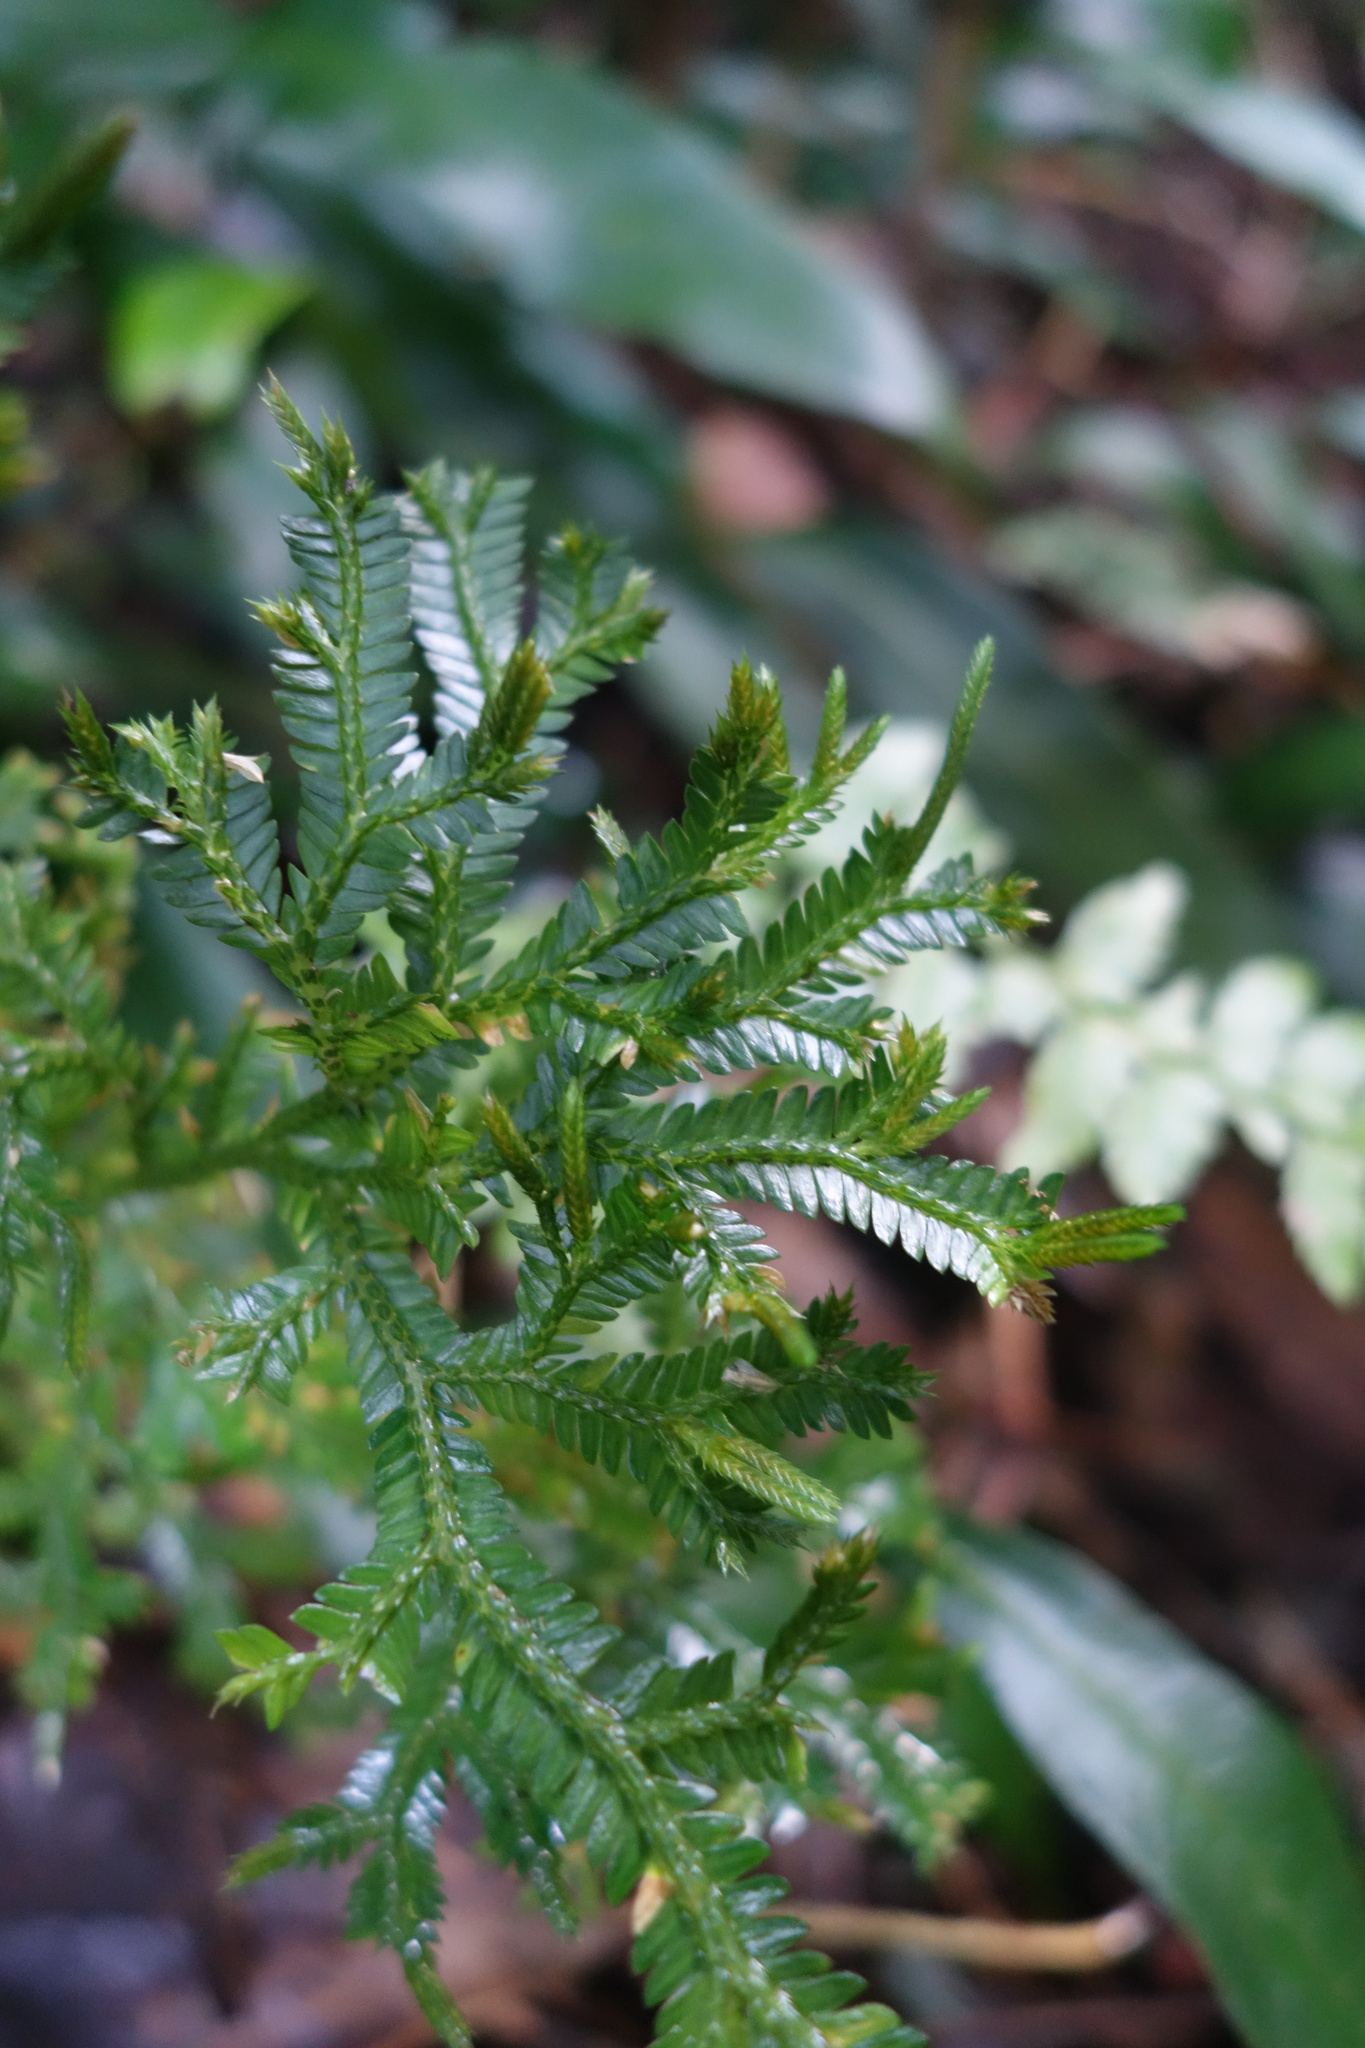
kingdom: Plantae
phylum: Tracheophyta
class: Lycopodiopsida
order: Selaginellales
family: Selaginellaceae
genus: Selaginella
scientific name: Selaginella doederleinii
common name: Greater selaginella
